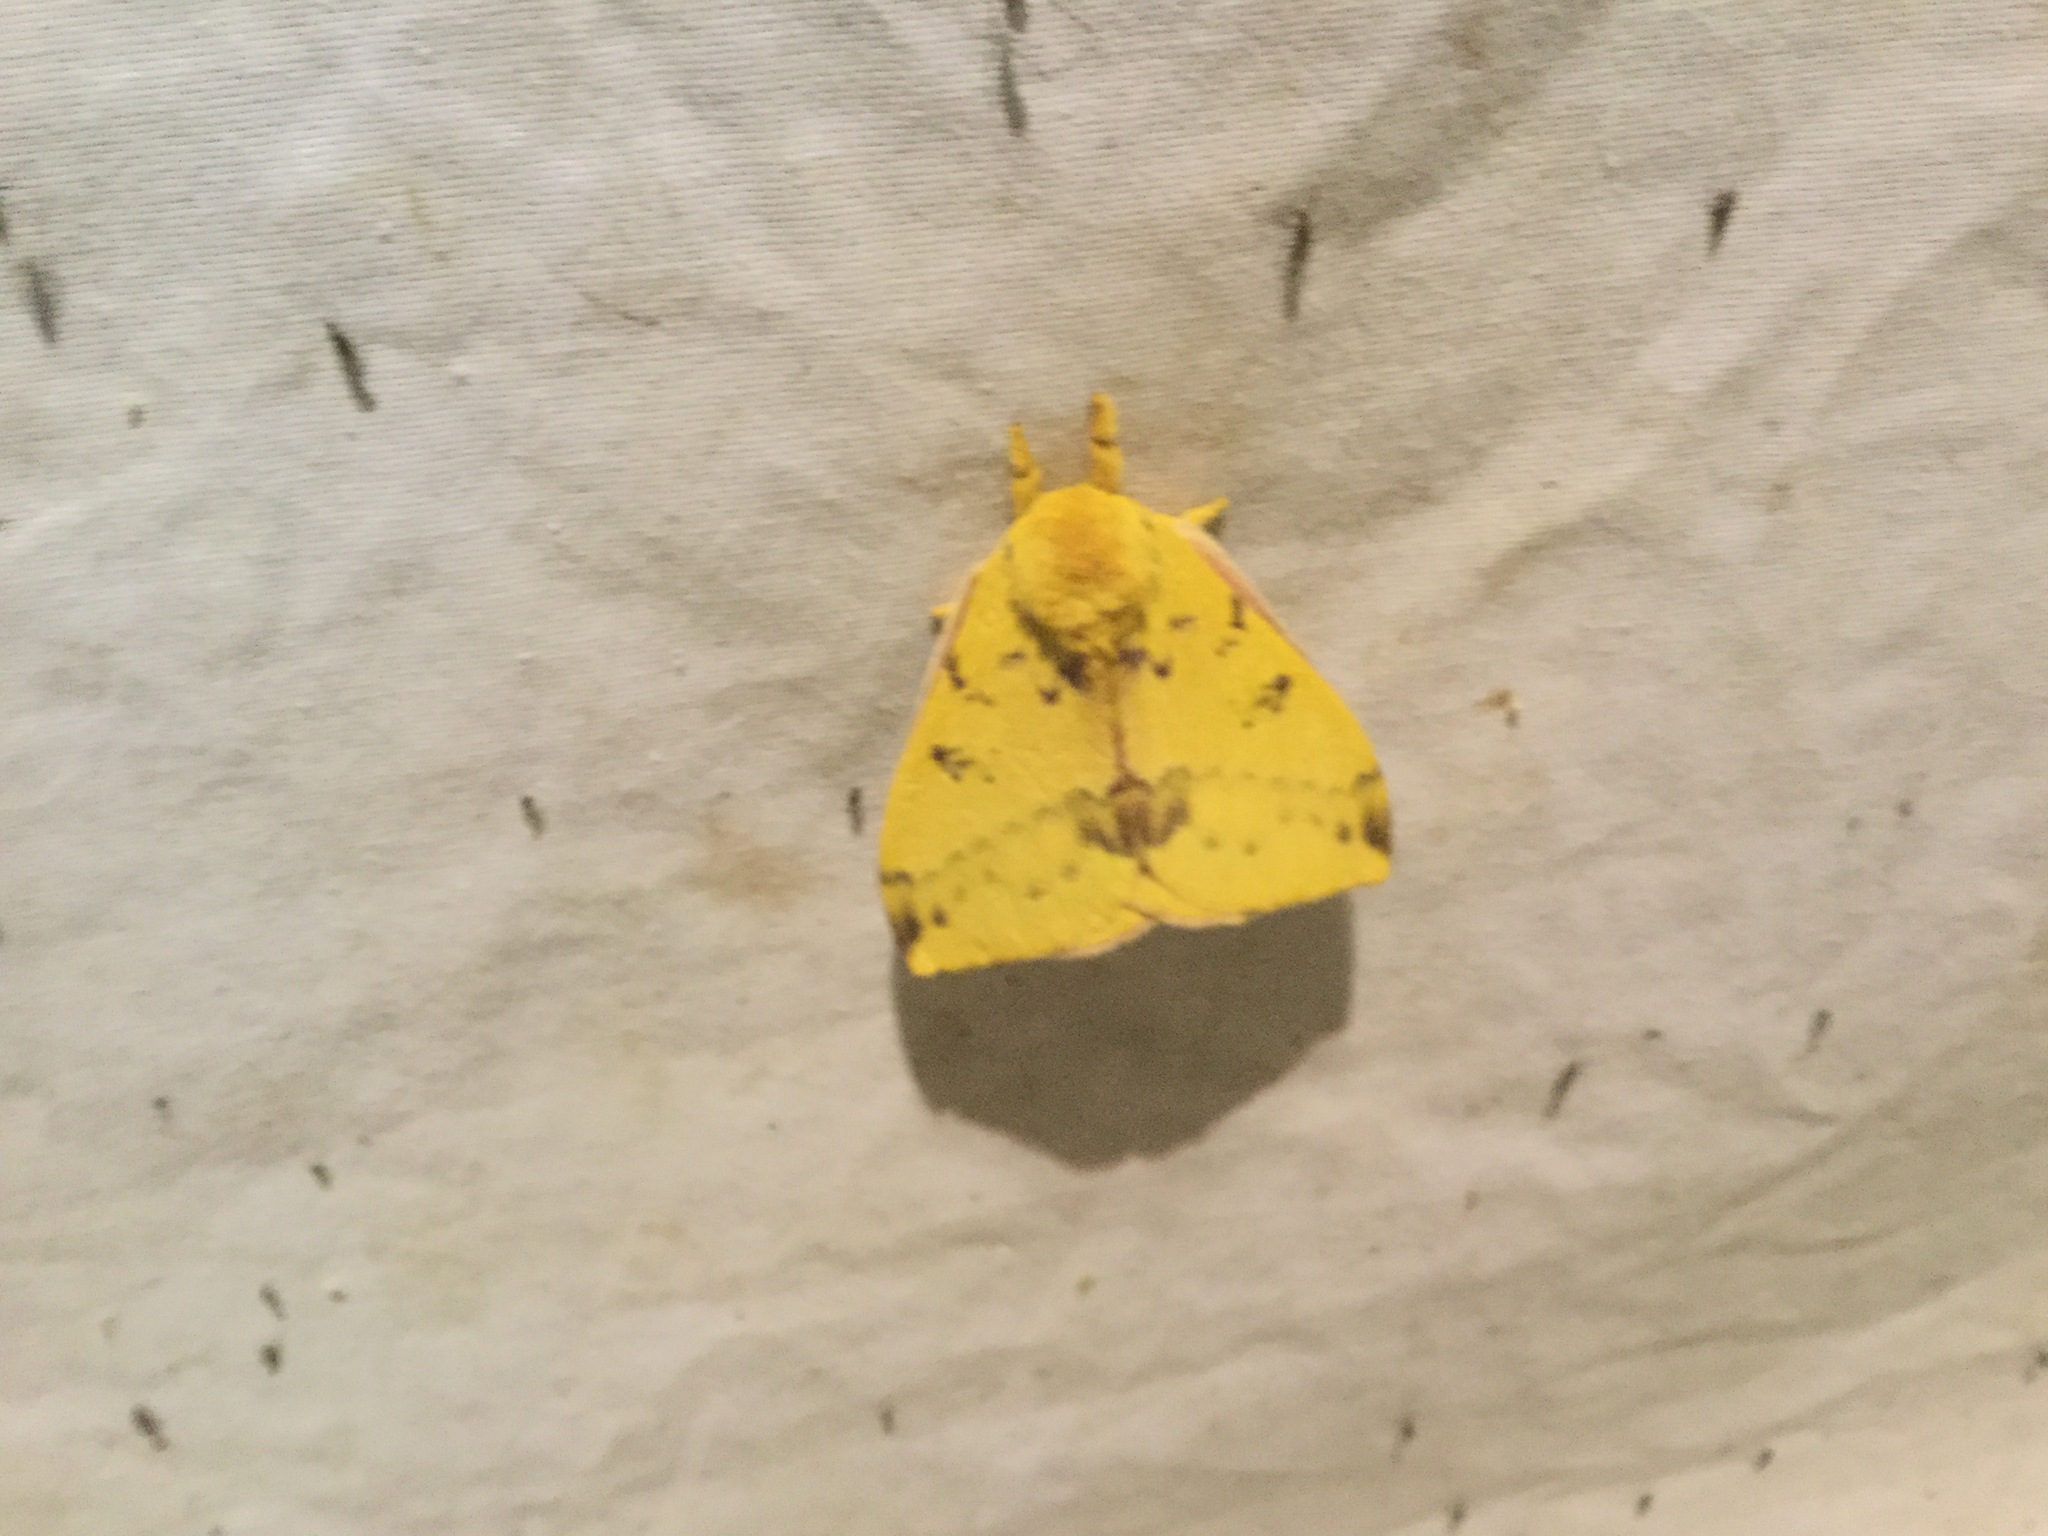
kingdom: Animalia
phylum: Arthropoda
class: Insecta
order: Lepidoptera
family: Saturniidae
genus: Automeris
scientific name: Automeris io
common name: Io moth
